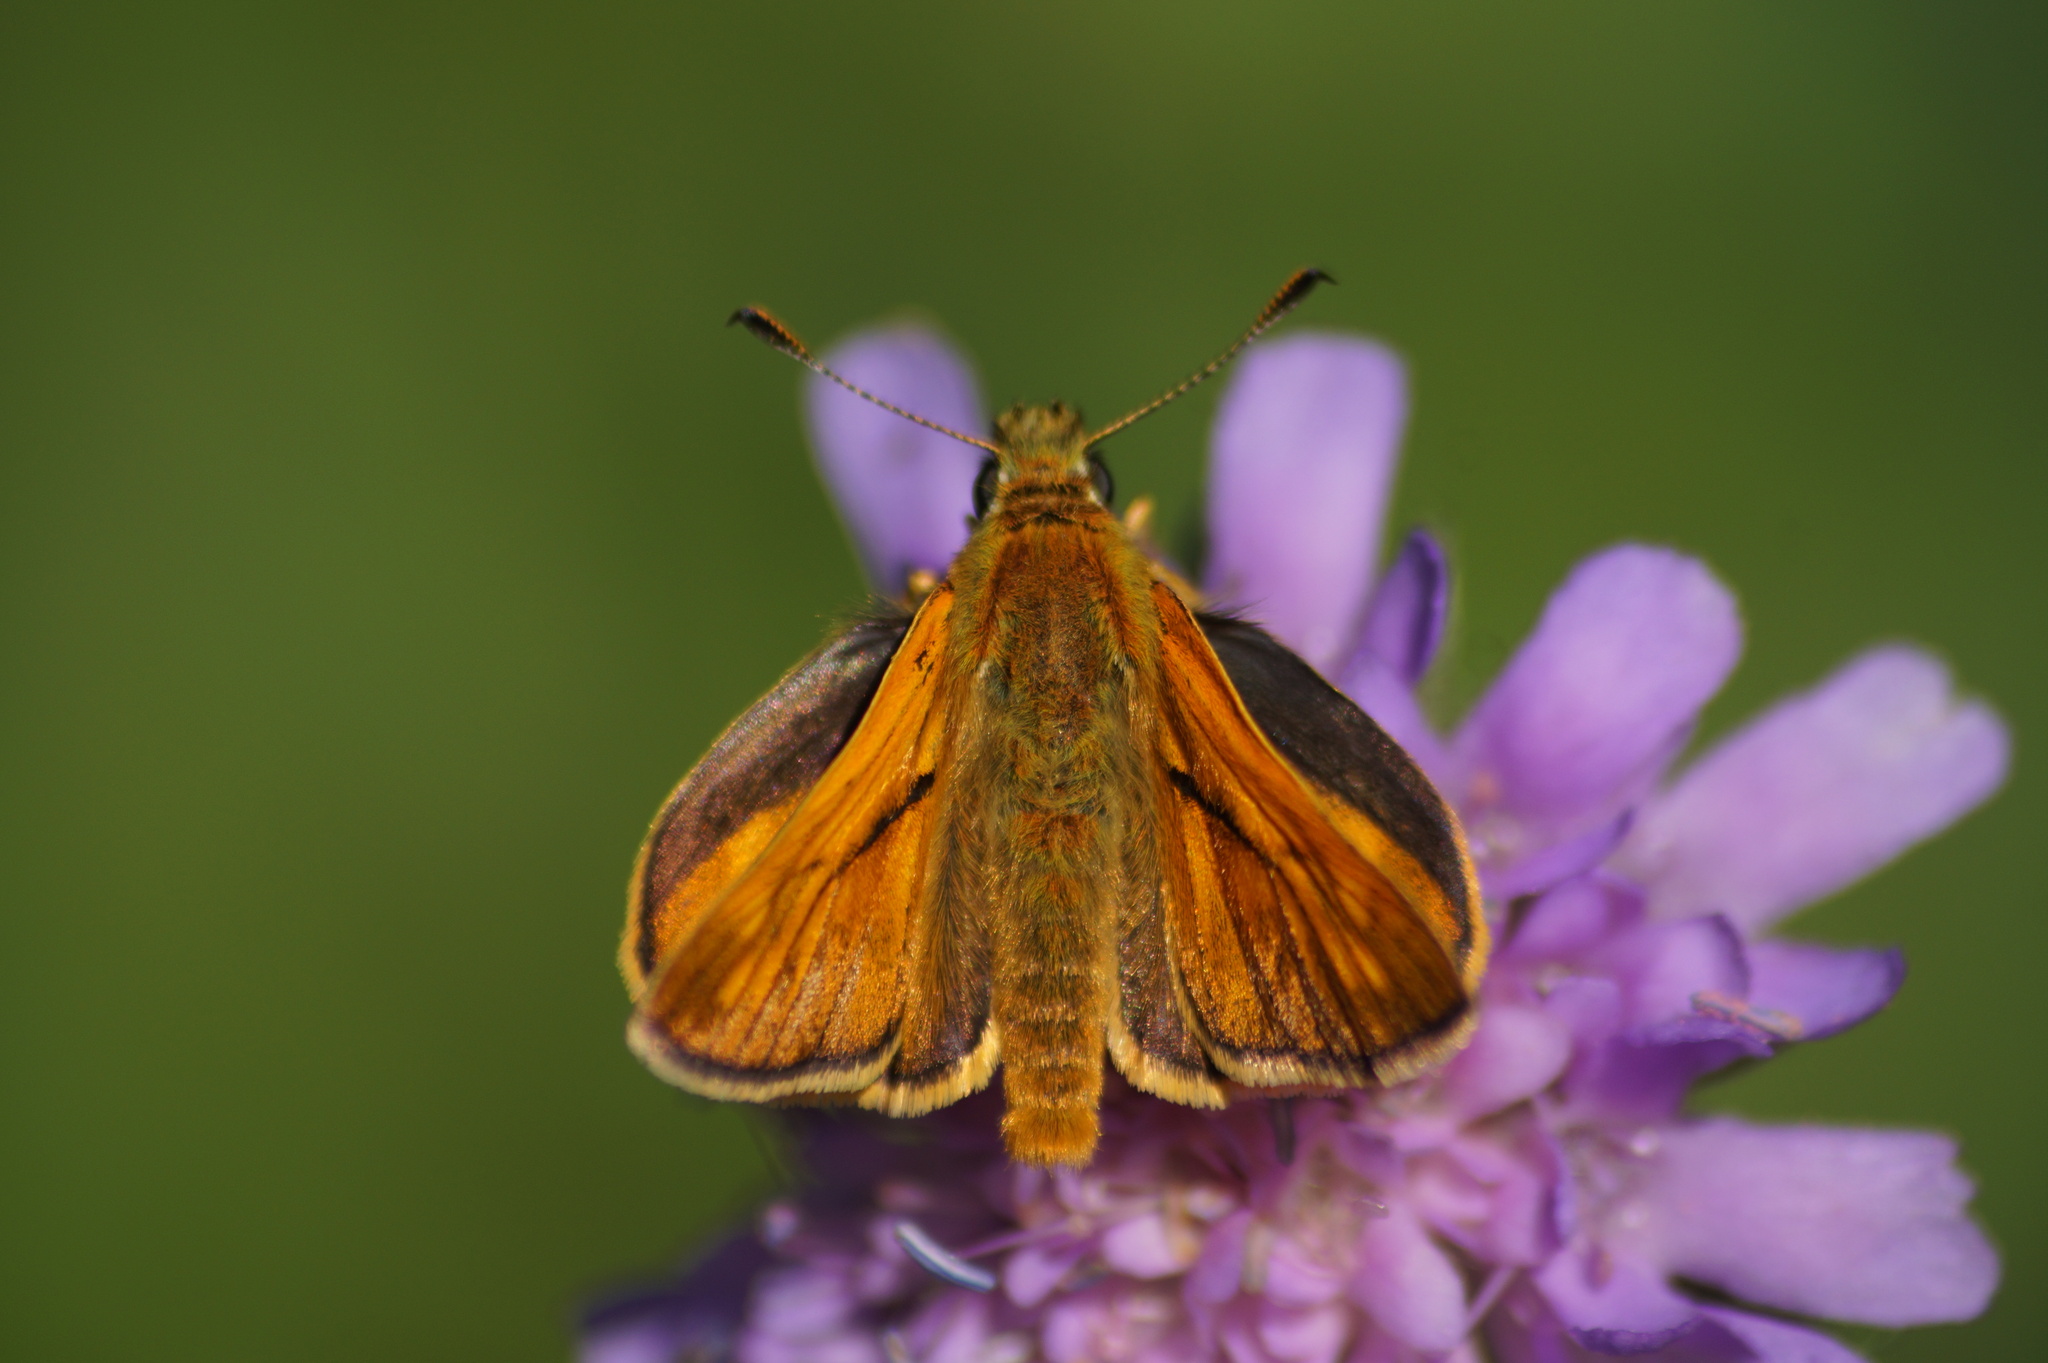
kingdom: Animalia
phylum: Arthropoda
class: Insecta
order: Lepidoptera
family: Hesperiidae
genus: Ochlodes
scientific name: Ochlodes venata
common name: Large skipper
